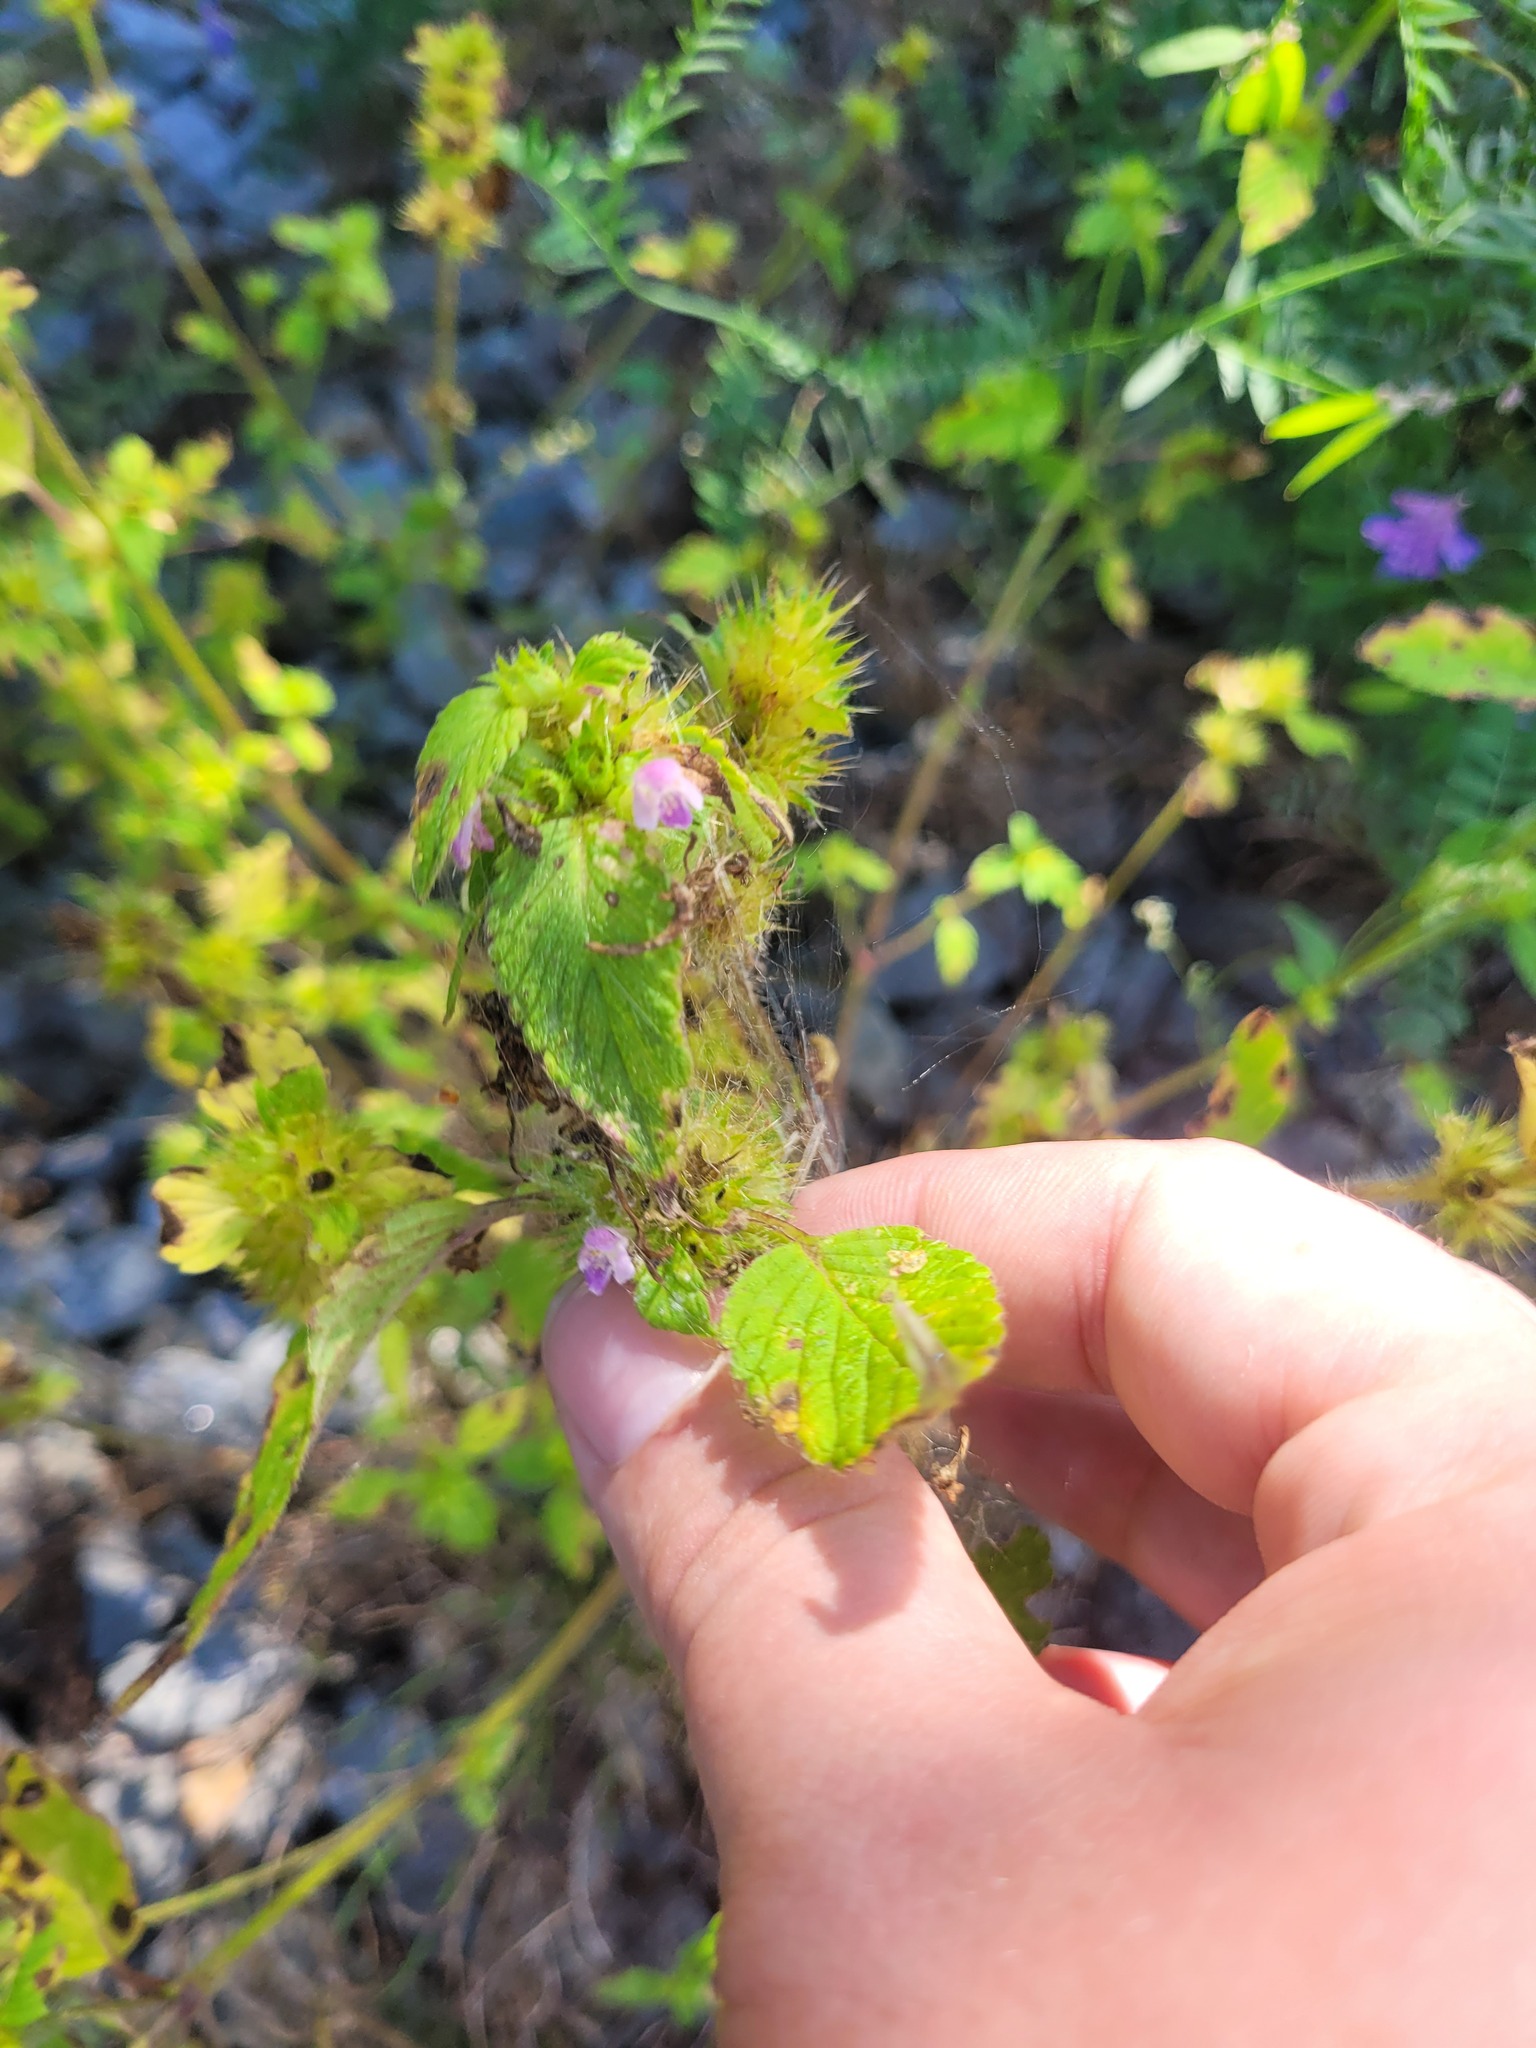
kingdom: Plantae
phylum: Tracheophyta
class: Magnoliopsida
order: Lamiales
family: Lamiaceae
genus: Galeopsis
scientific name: Galeopsis bifida
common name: Bifid hemp-nettle
